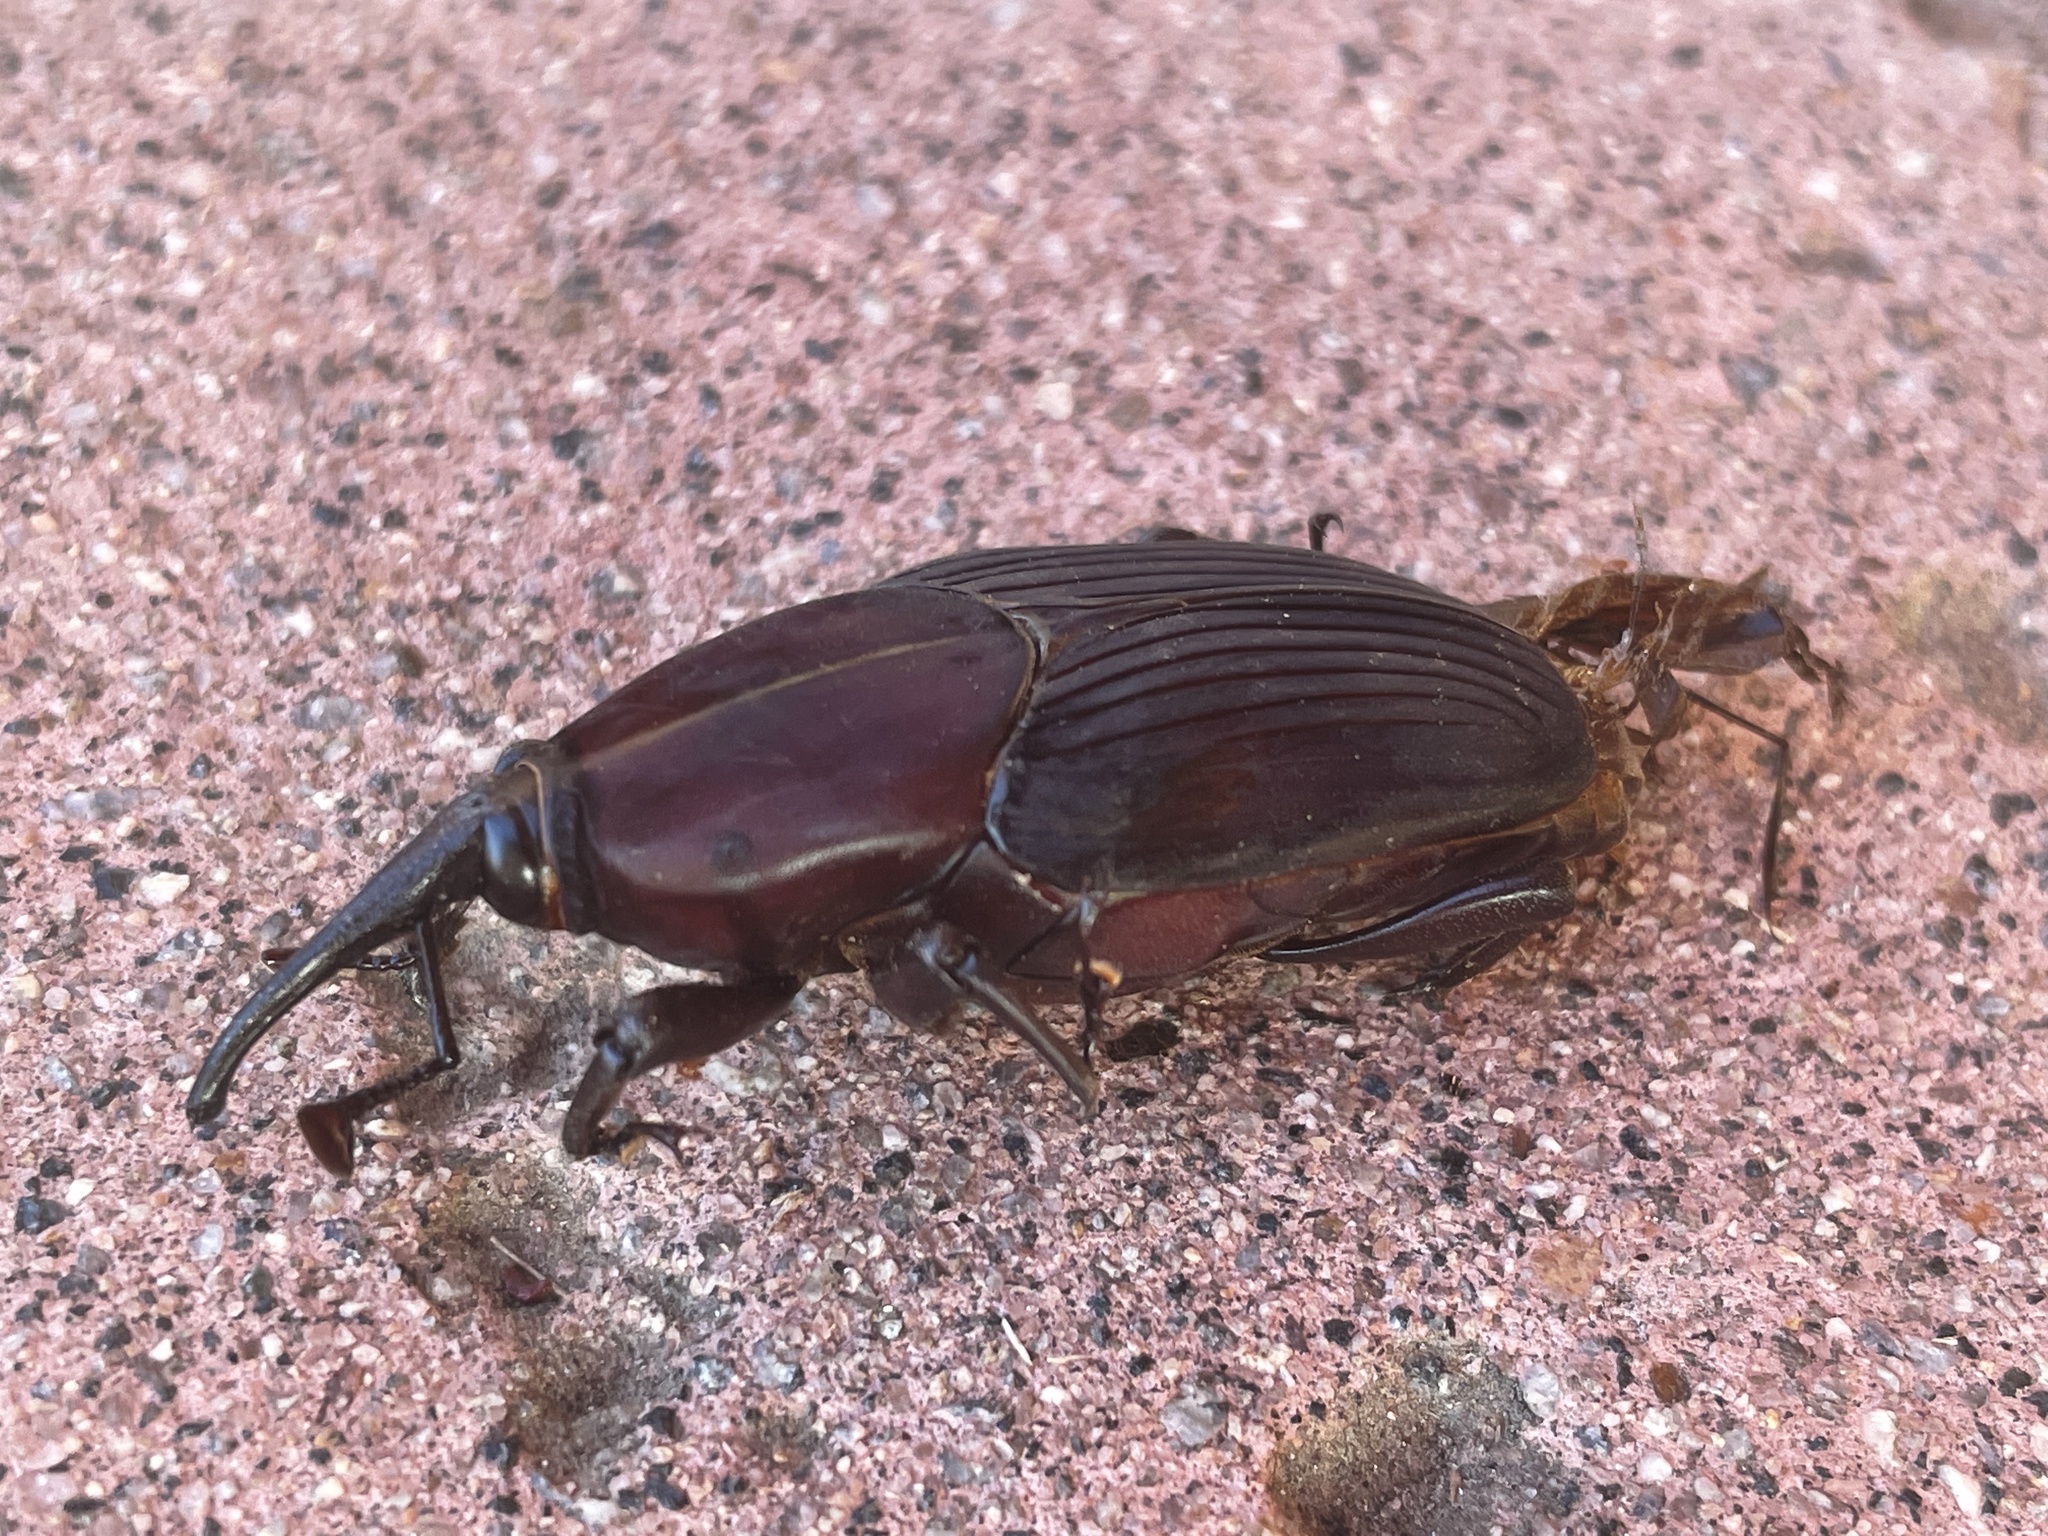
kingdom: Animalia
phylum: Arthropoda
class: Insecta
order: Coleoptera
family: Dryophthoridae
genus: Rhynchophorus
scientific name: Rhynchophorus palmarum
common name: Palm weevil
